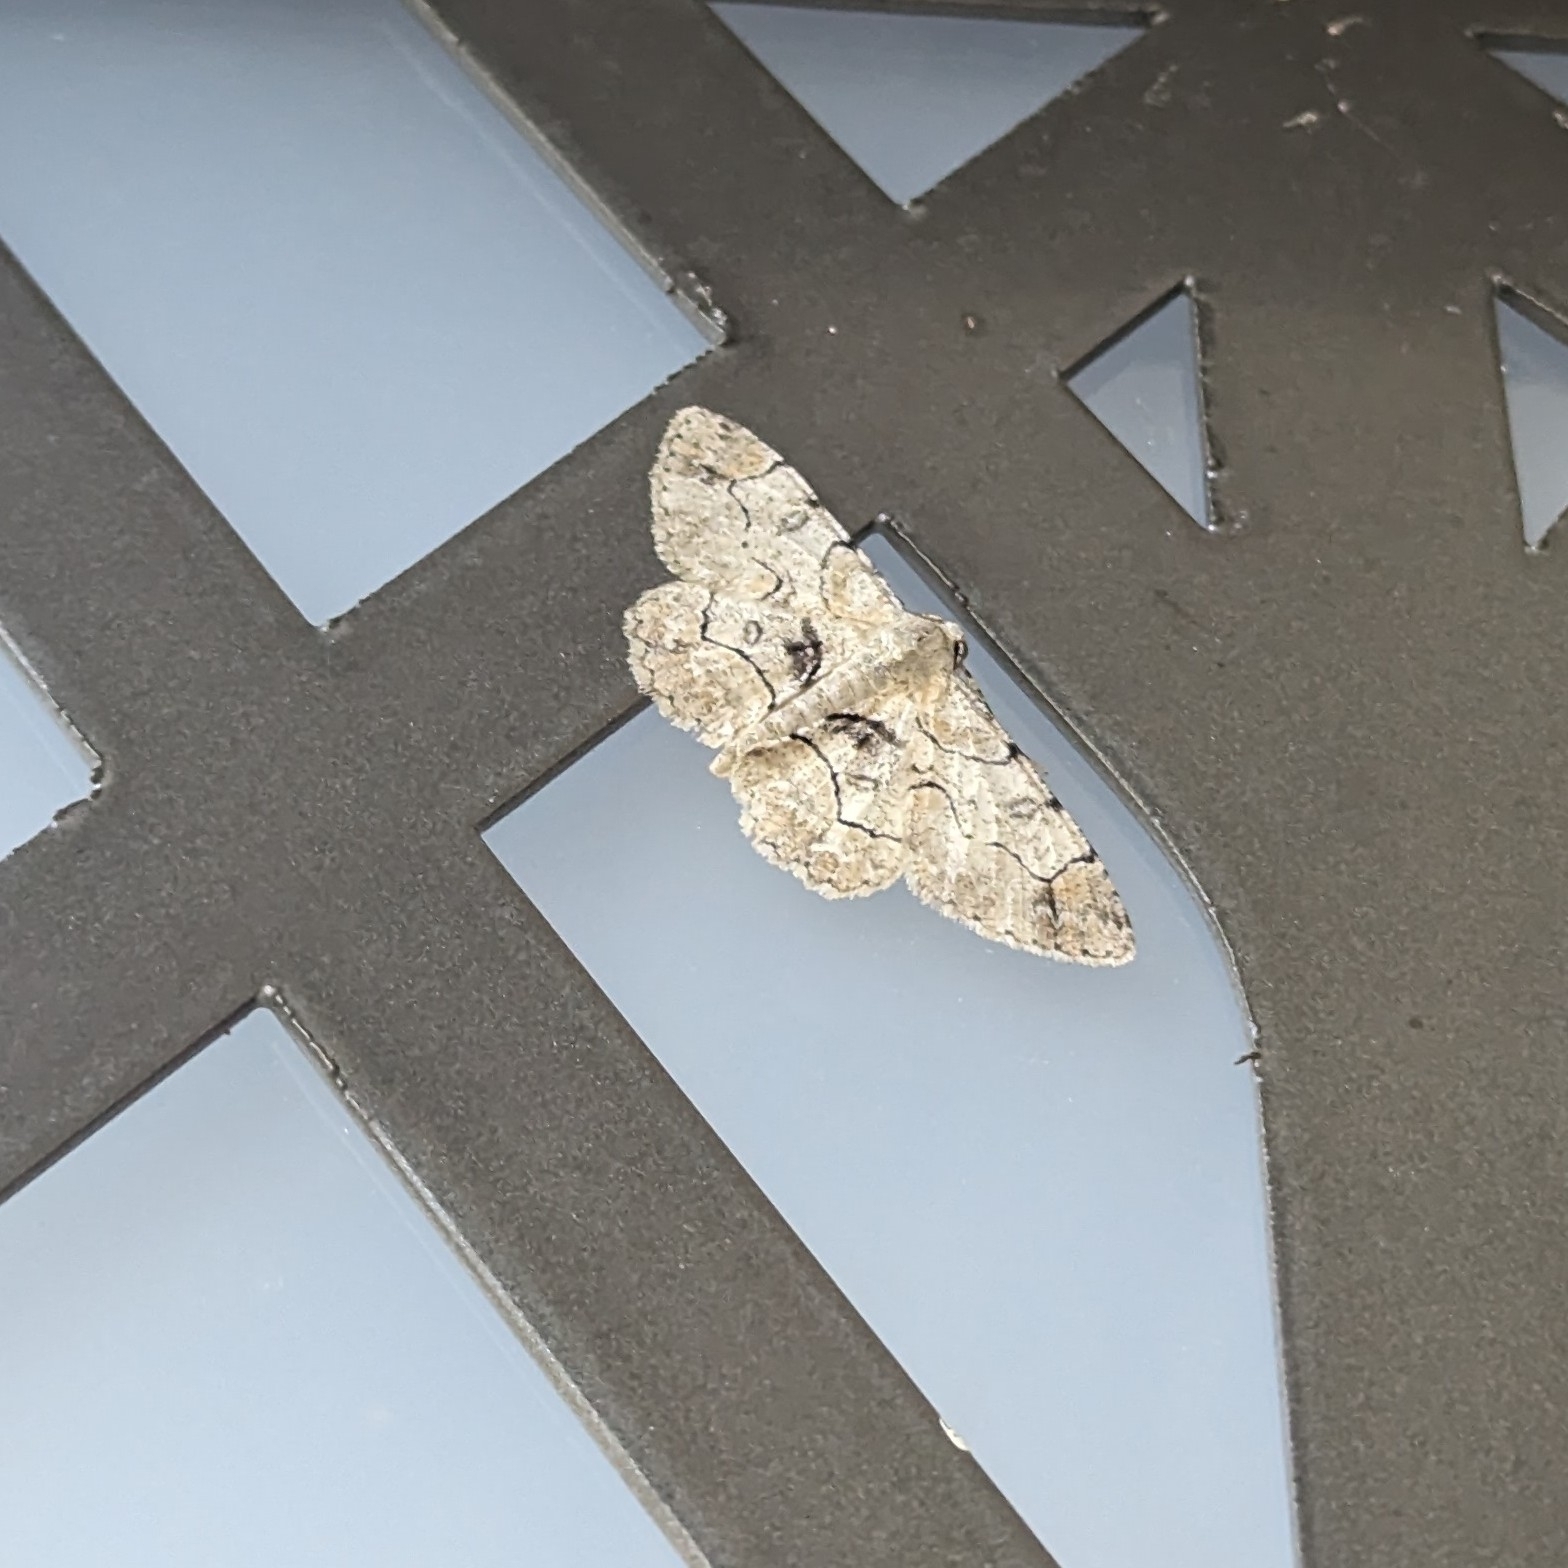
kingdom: Animalia
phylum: Arthropoda
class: Insecta
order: Lepidoptera
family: Geometridae
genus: Iridopsis
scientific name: Iridopsis larvaria
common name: Bent-line gray
